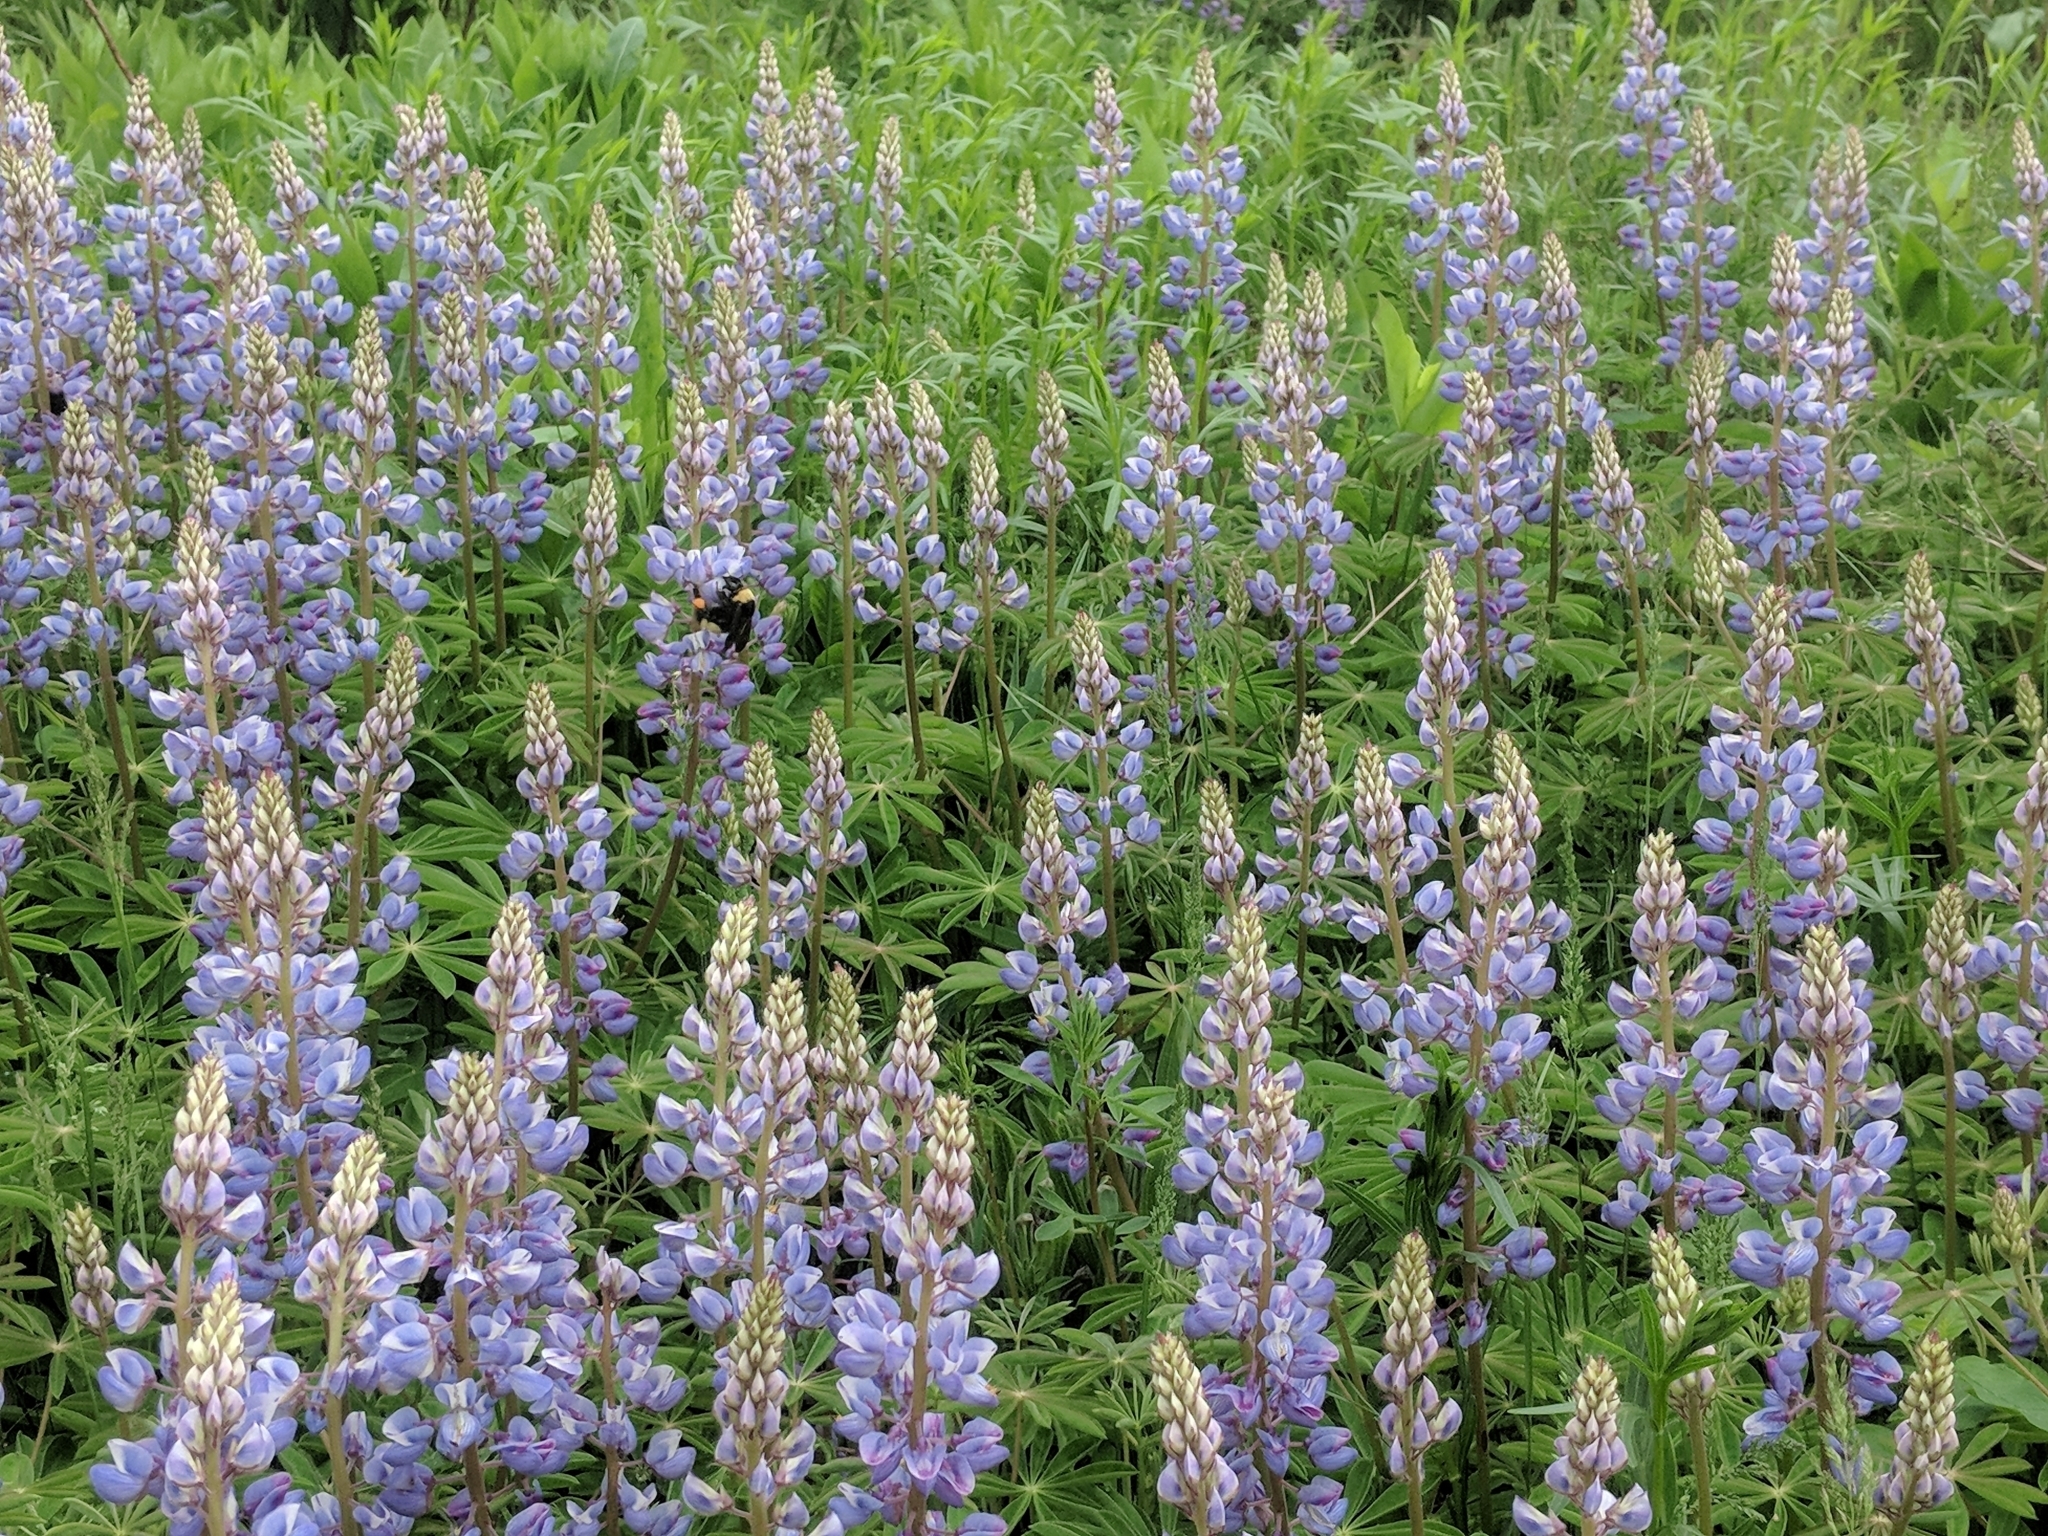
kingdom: Plantae
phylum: Tracheophyta
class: Magnoliopsida
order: Fabales
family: Fabaceae
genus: Lupinus
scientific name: Lupinus perennis
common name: Sundial lupine
